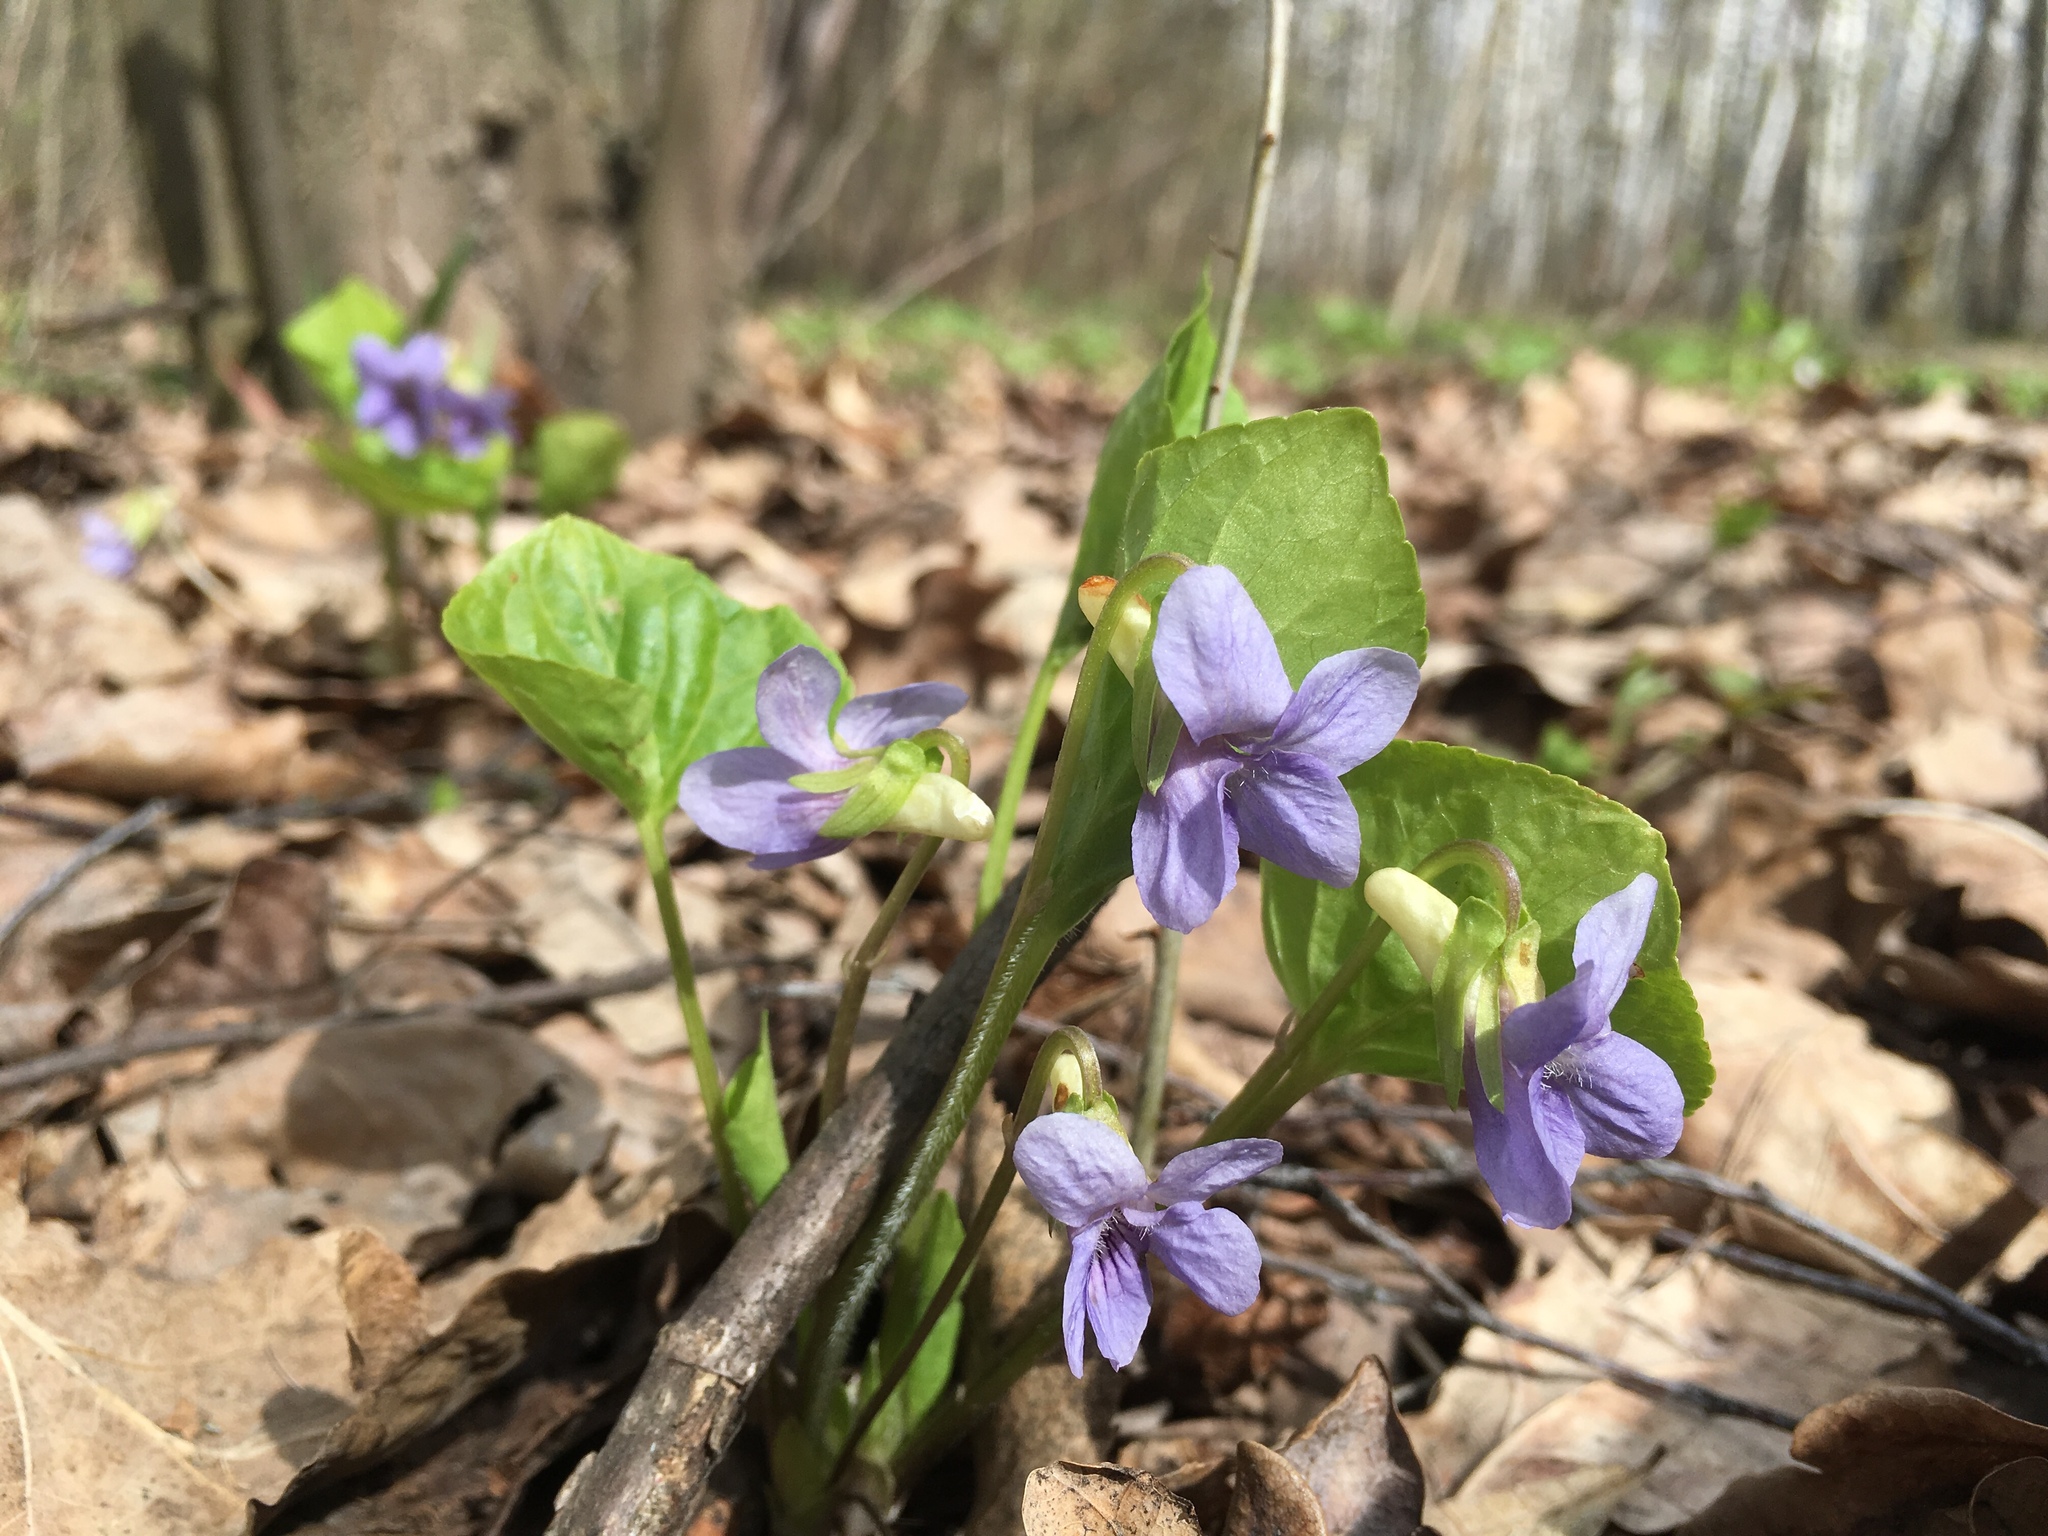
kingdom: Plantae
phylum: Tracheophyta
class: Magnoliopsida
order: Malpighiales
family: Violaceae
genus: Viola
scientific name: Viola mirabilis
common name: Wonder violet
